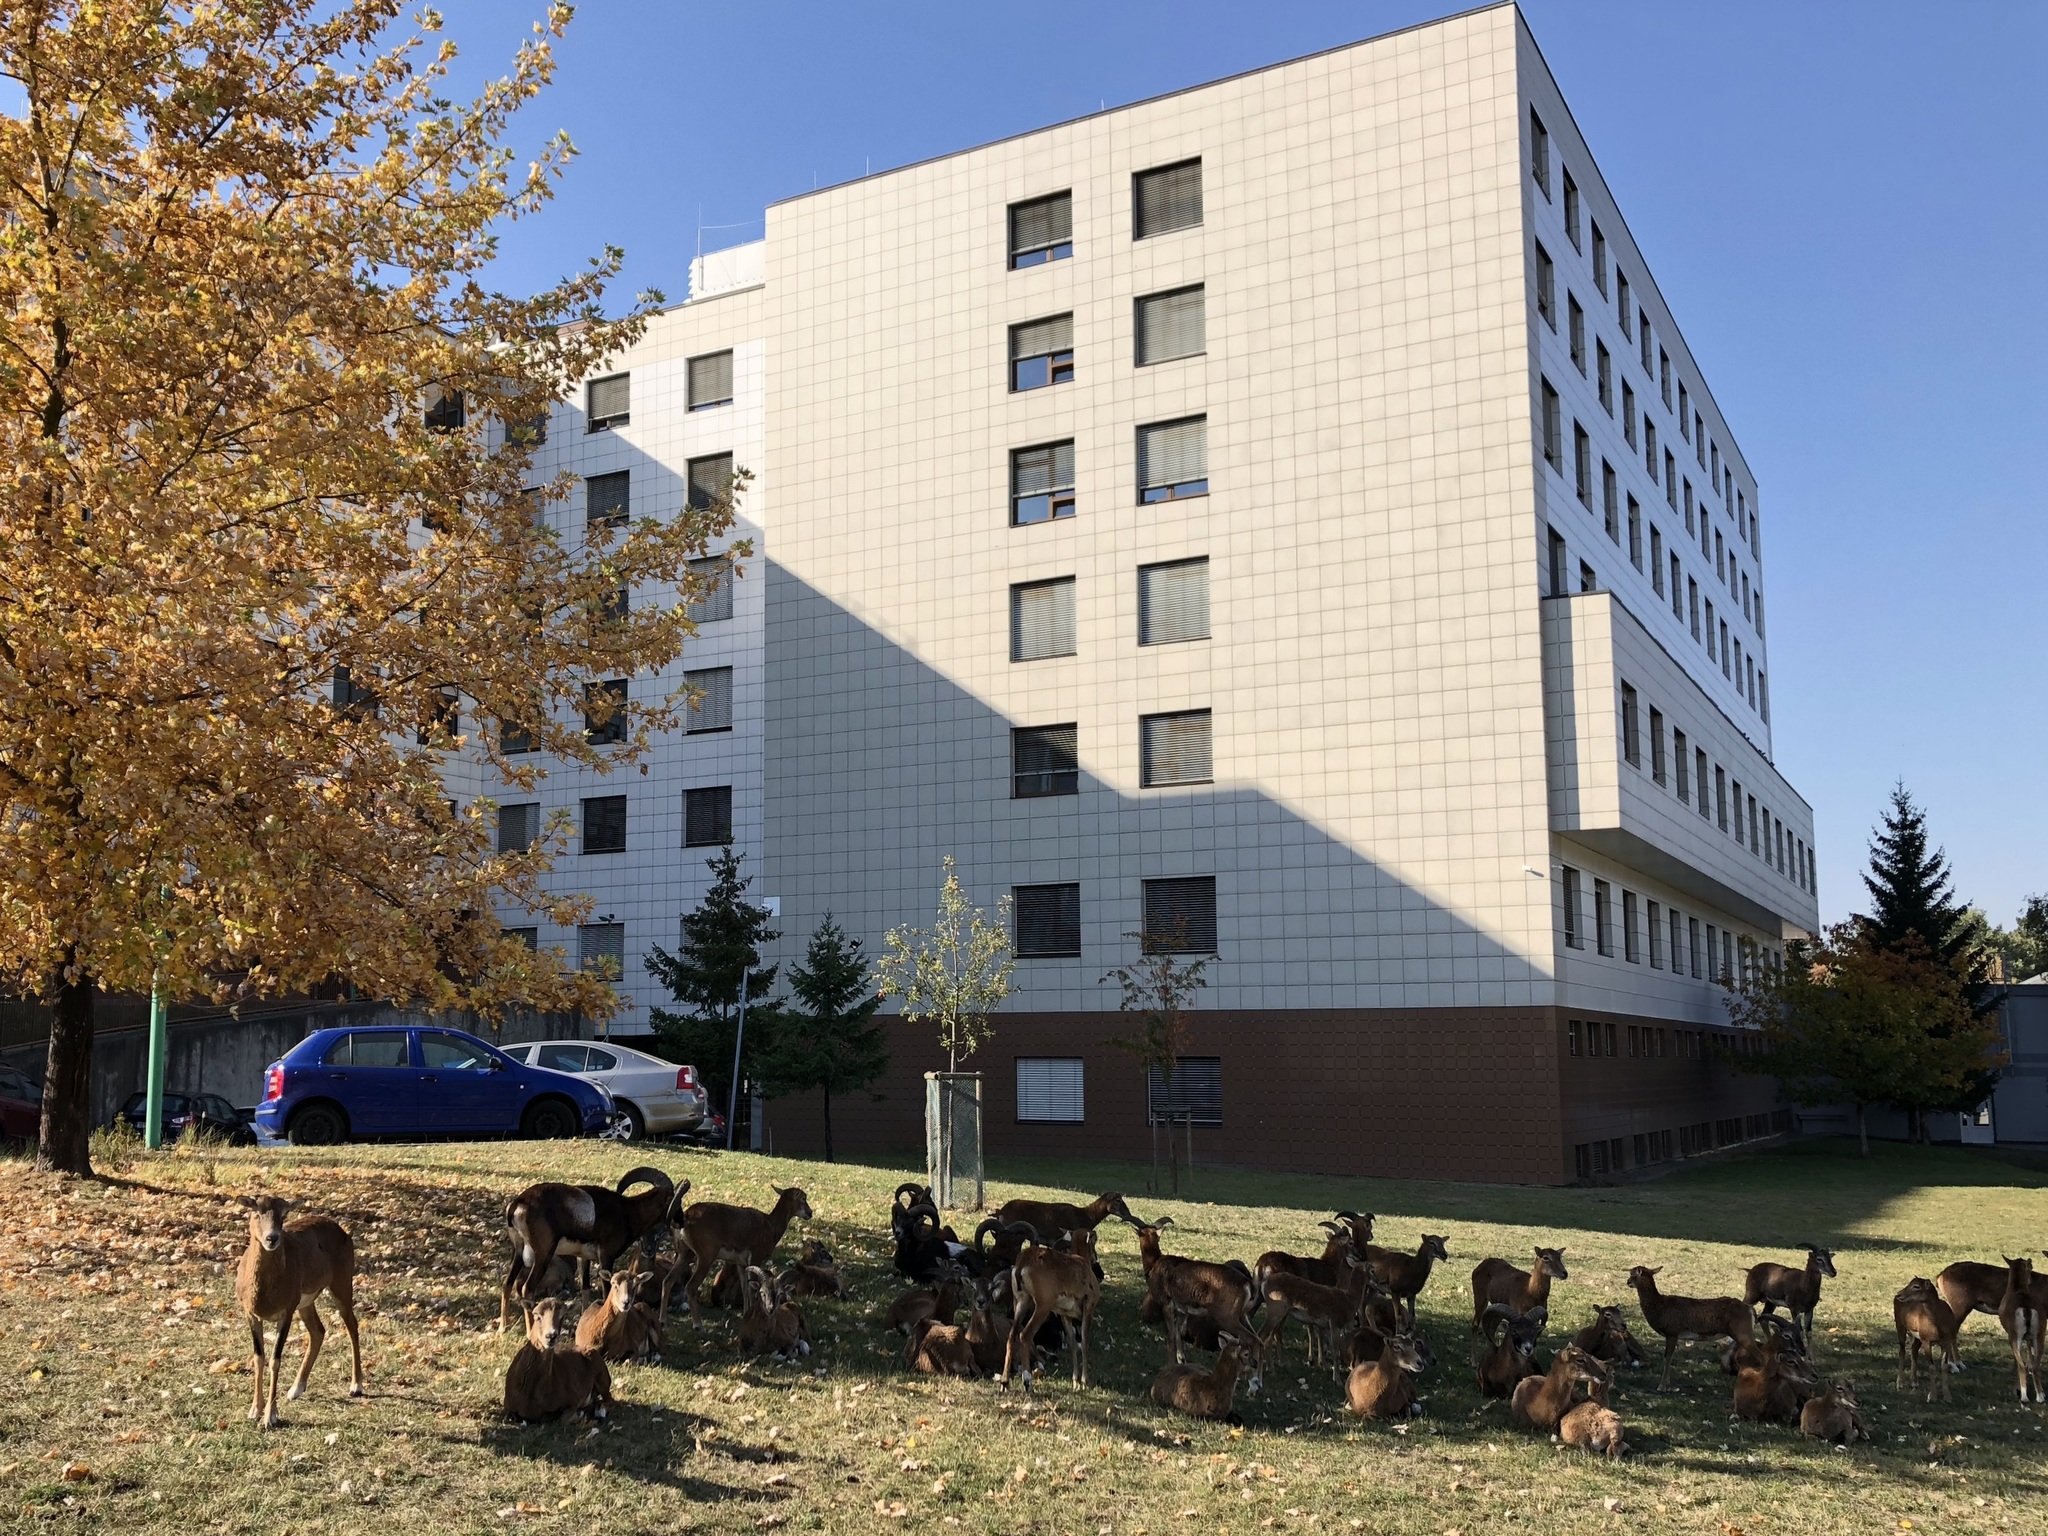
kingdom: Animalia
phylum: Chordata
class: Mammalia
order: Artiodactyla
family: Bovidae
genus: Ovis
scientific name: Ovis aries
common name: Domestic sheep
